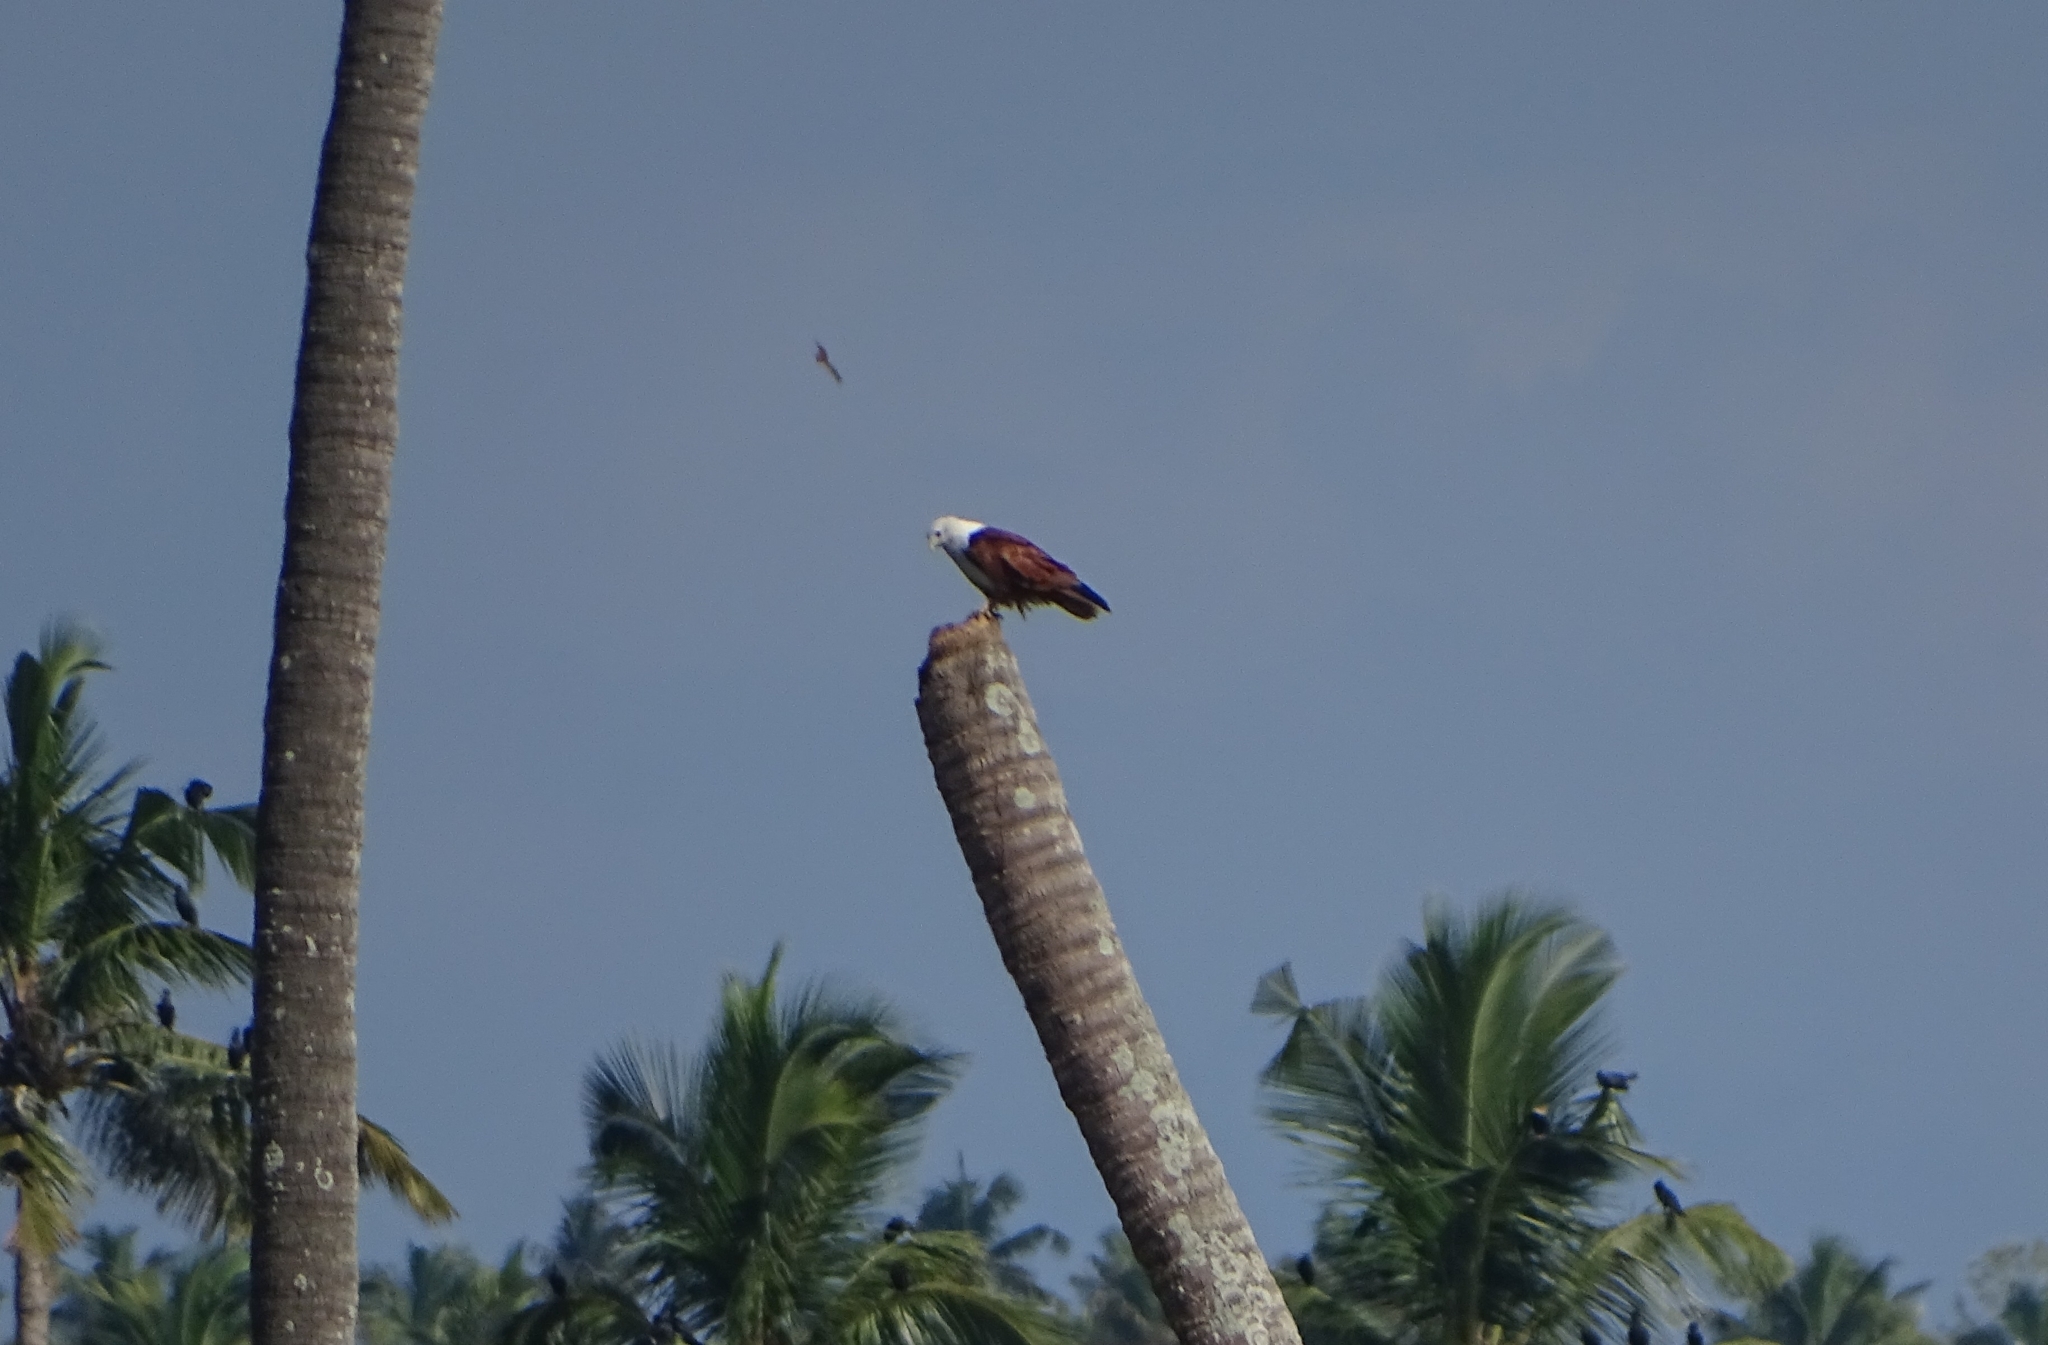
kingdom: Animalia
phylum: Chordata
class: Aves
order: Accipitriformes
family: Accipitridae
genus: Haliastur
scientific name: Haliastur indus
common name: Brahminy kite
